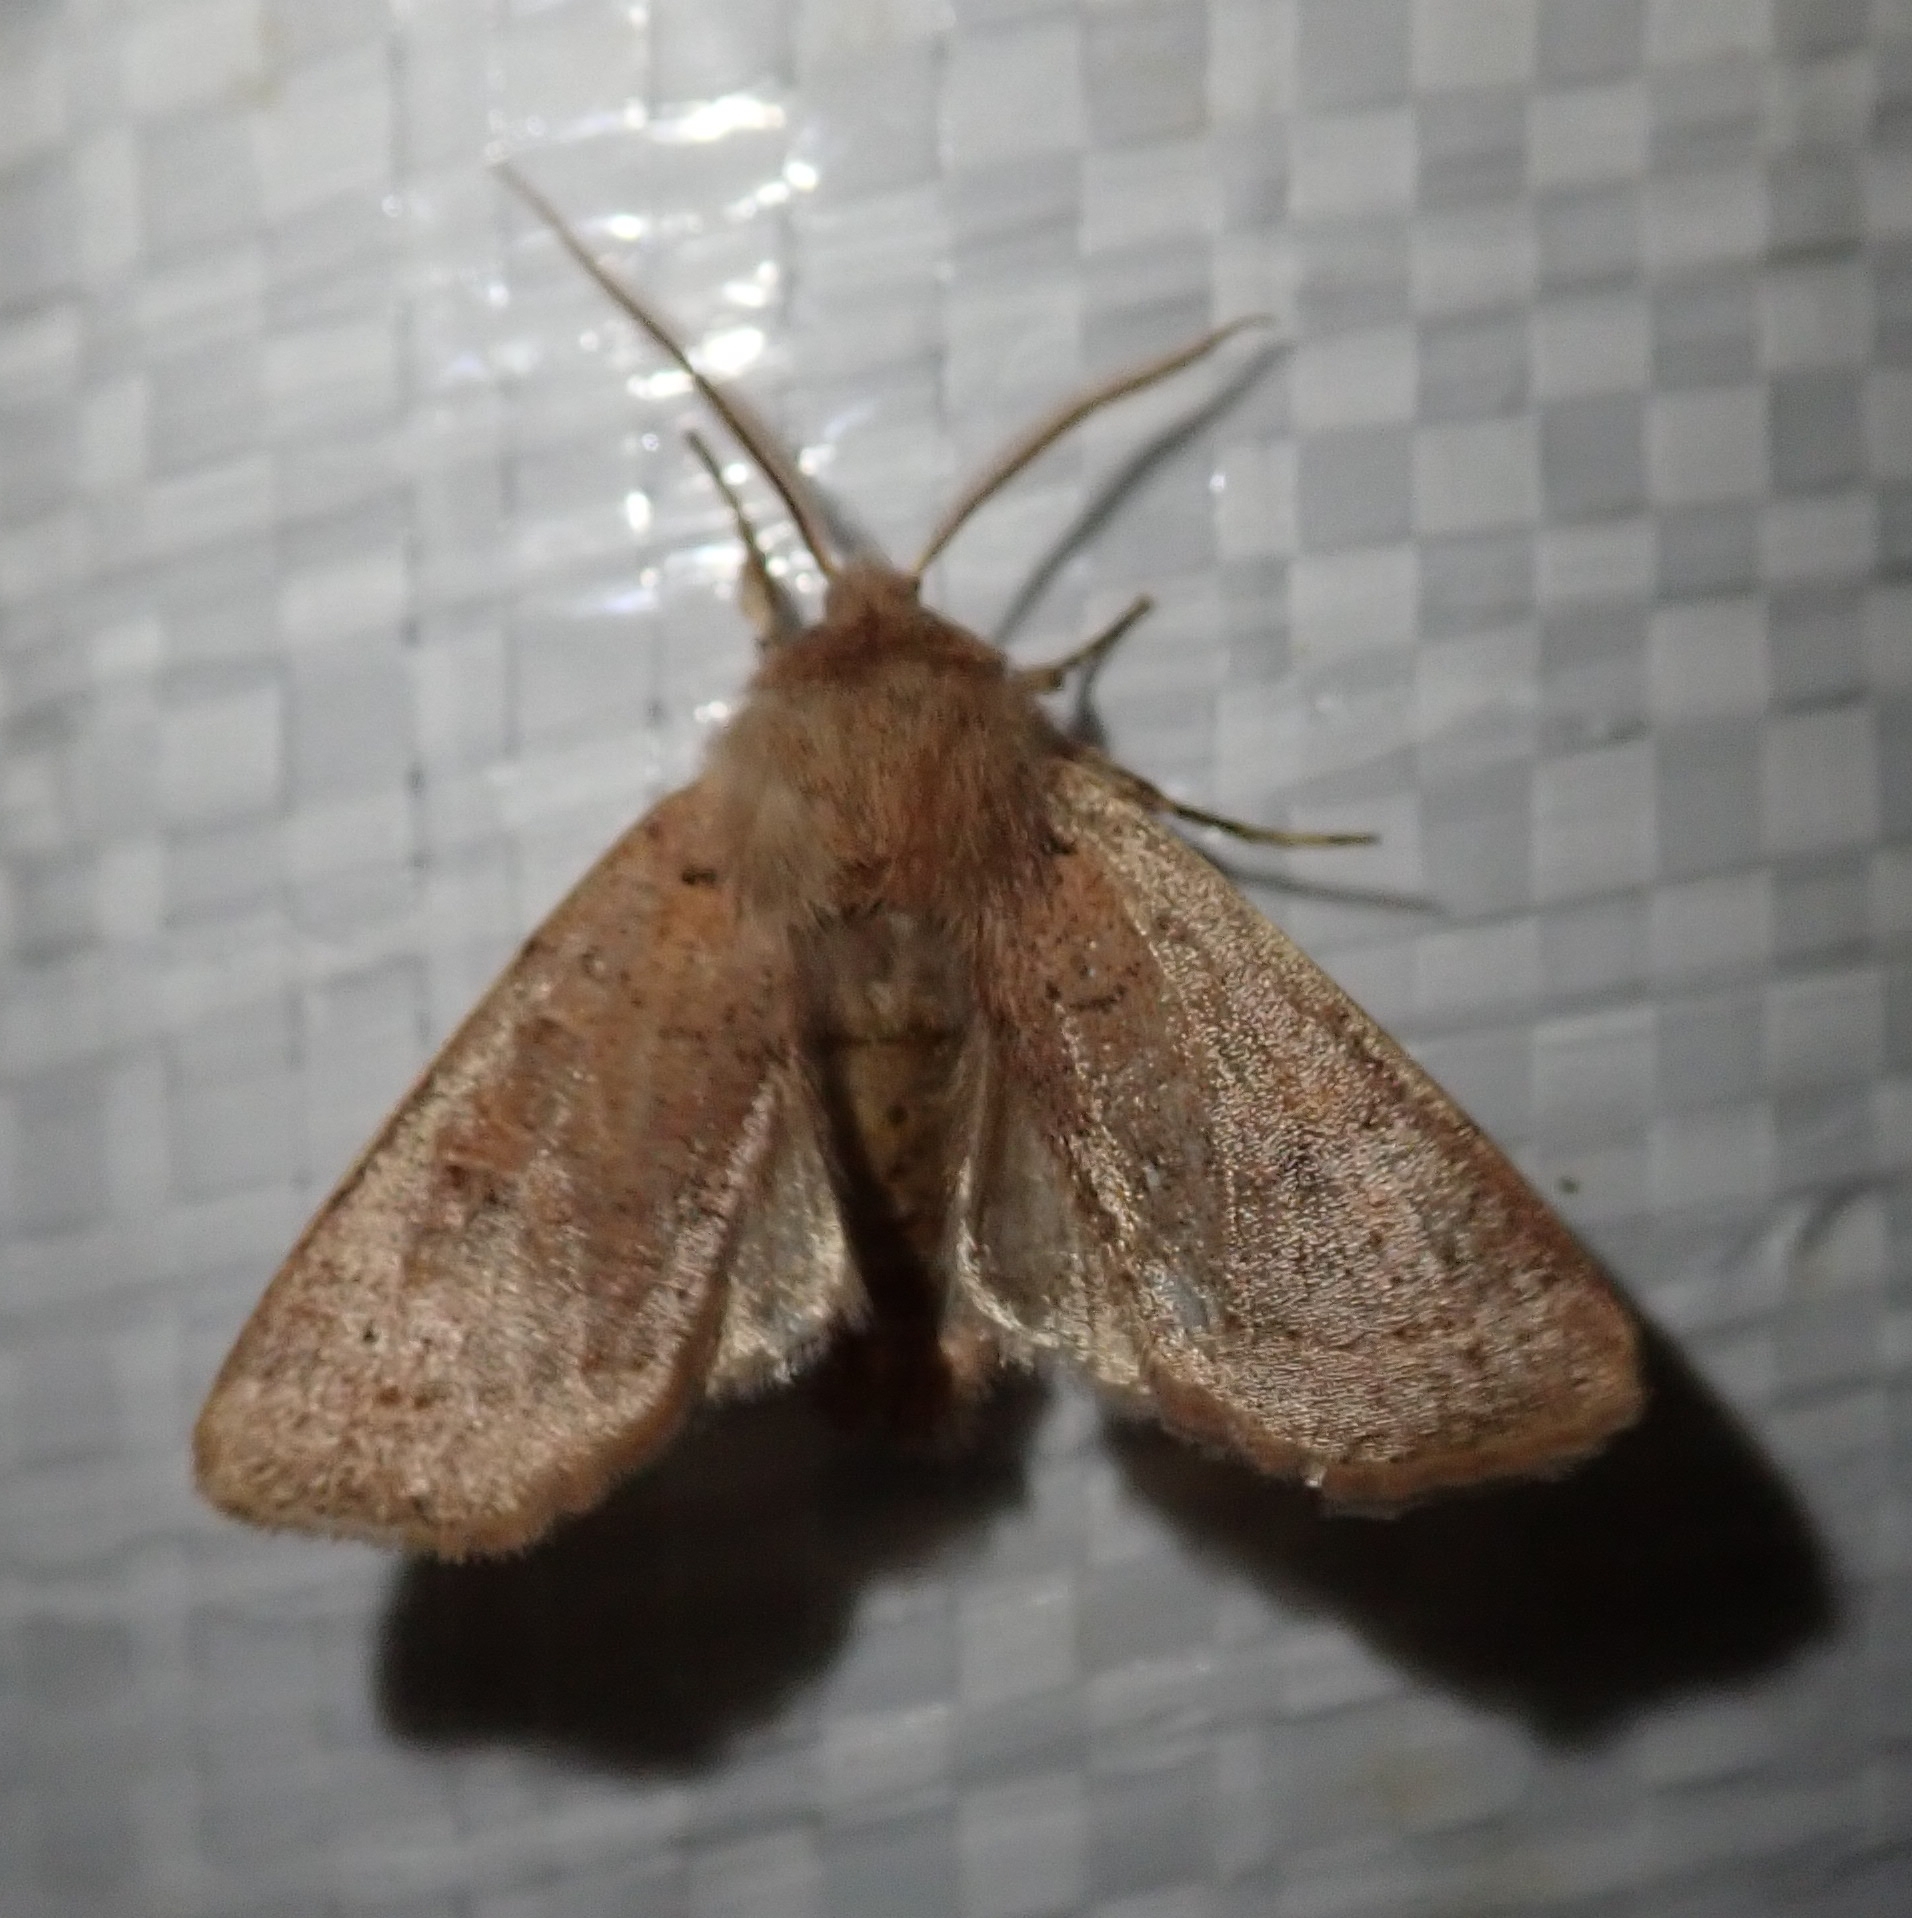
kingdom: Animalia
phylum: Arthropoda
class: Insecta
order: Lepidoptera
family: Noctuidae
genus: Orthosia
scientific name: Orthosia cerasi
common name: Common quaker
